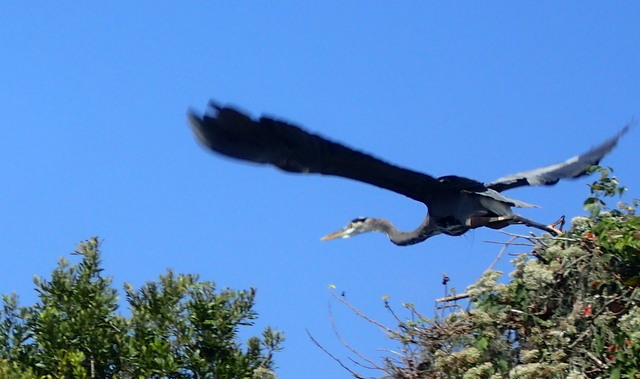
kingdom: Animalia
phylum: Chordata
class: Aves
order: Pelecaniformes
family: Ardeidae
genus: Ardea
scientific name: Ardea herodias
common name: Great blue heron
